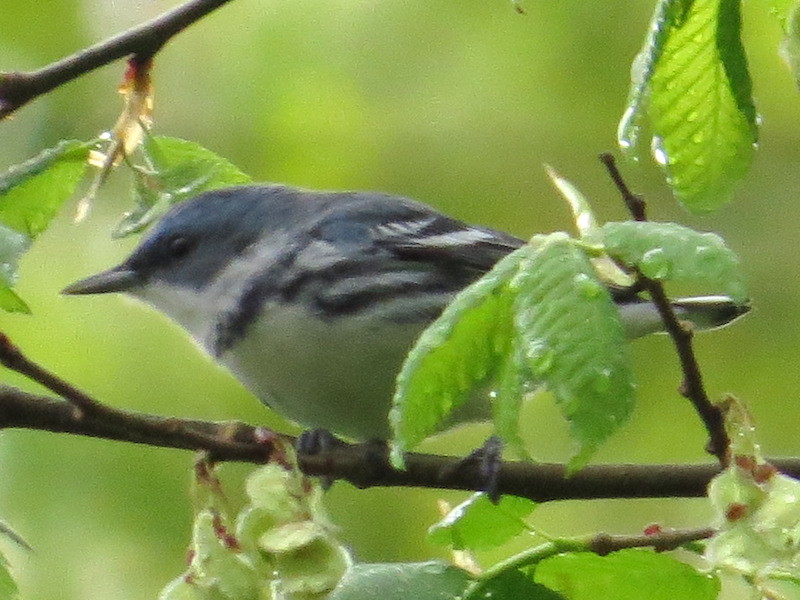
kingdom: Animalia
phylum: Chordata
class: Aves
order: Passeriformes
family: Parulidae
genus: Setophaga
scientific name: Setophaga cerulea
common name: Cerulean warbler
